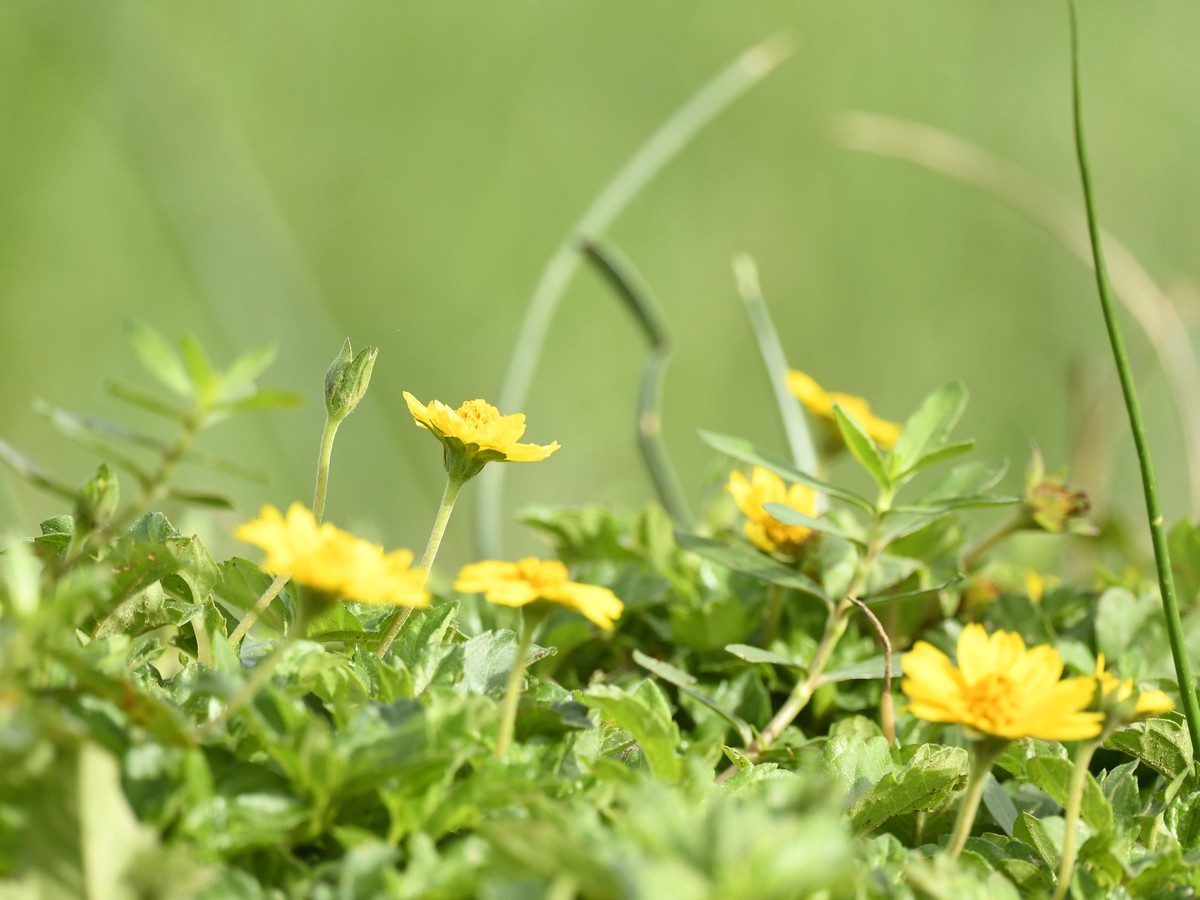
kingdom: Plantae
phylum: Tracheophyta
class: Magnoliopsida
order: Asterales
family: Asteraceae
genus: Sphagneticola
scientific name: Sphagneticola trilobata
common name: Bay biscayne creeping-oxeye
